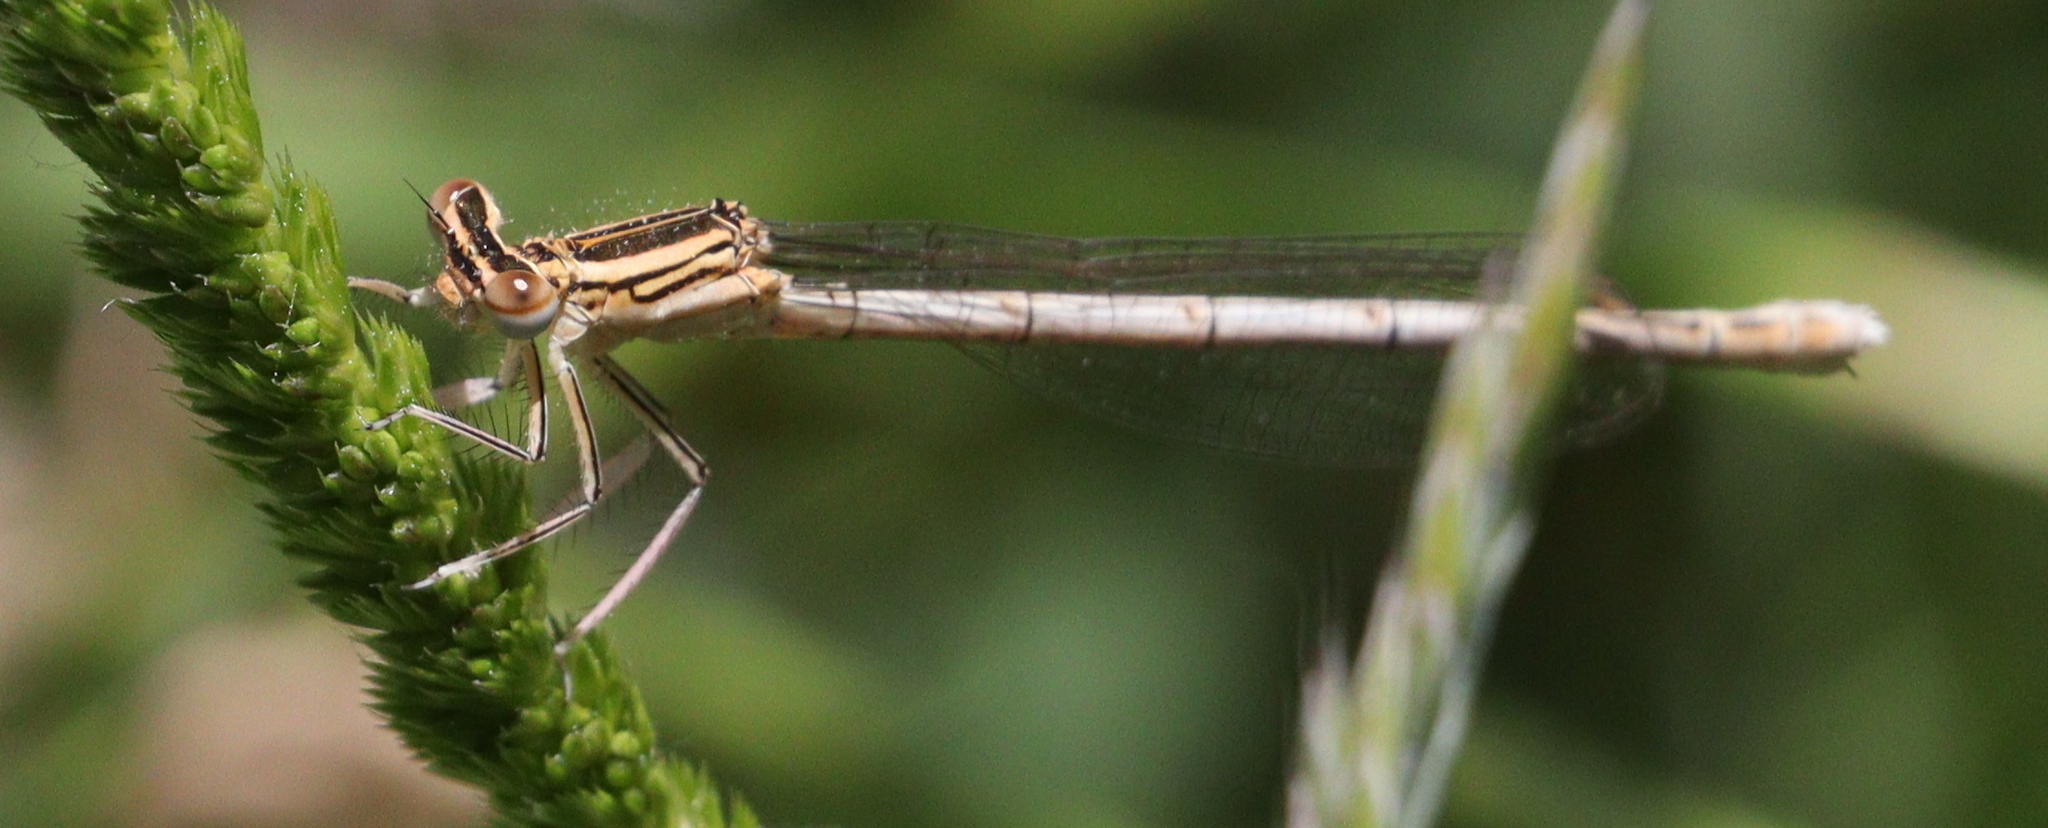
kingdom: Animalia
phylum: Arthropoda
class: Insecta
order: Odonata
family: Platycnemididae
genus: Platycnemis
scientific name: Platycnemis pennipes
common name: White-legged damselfly
